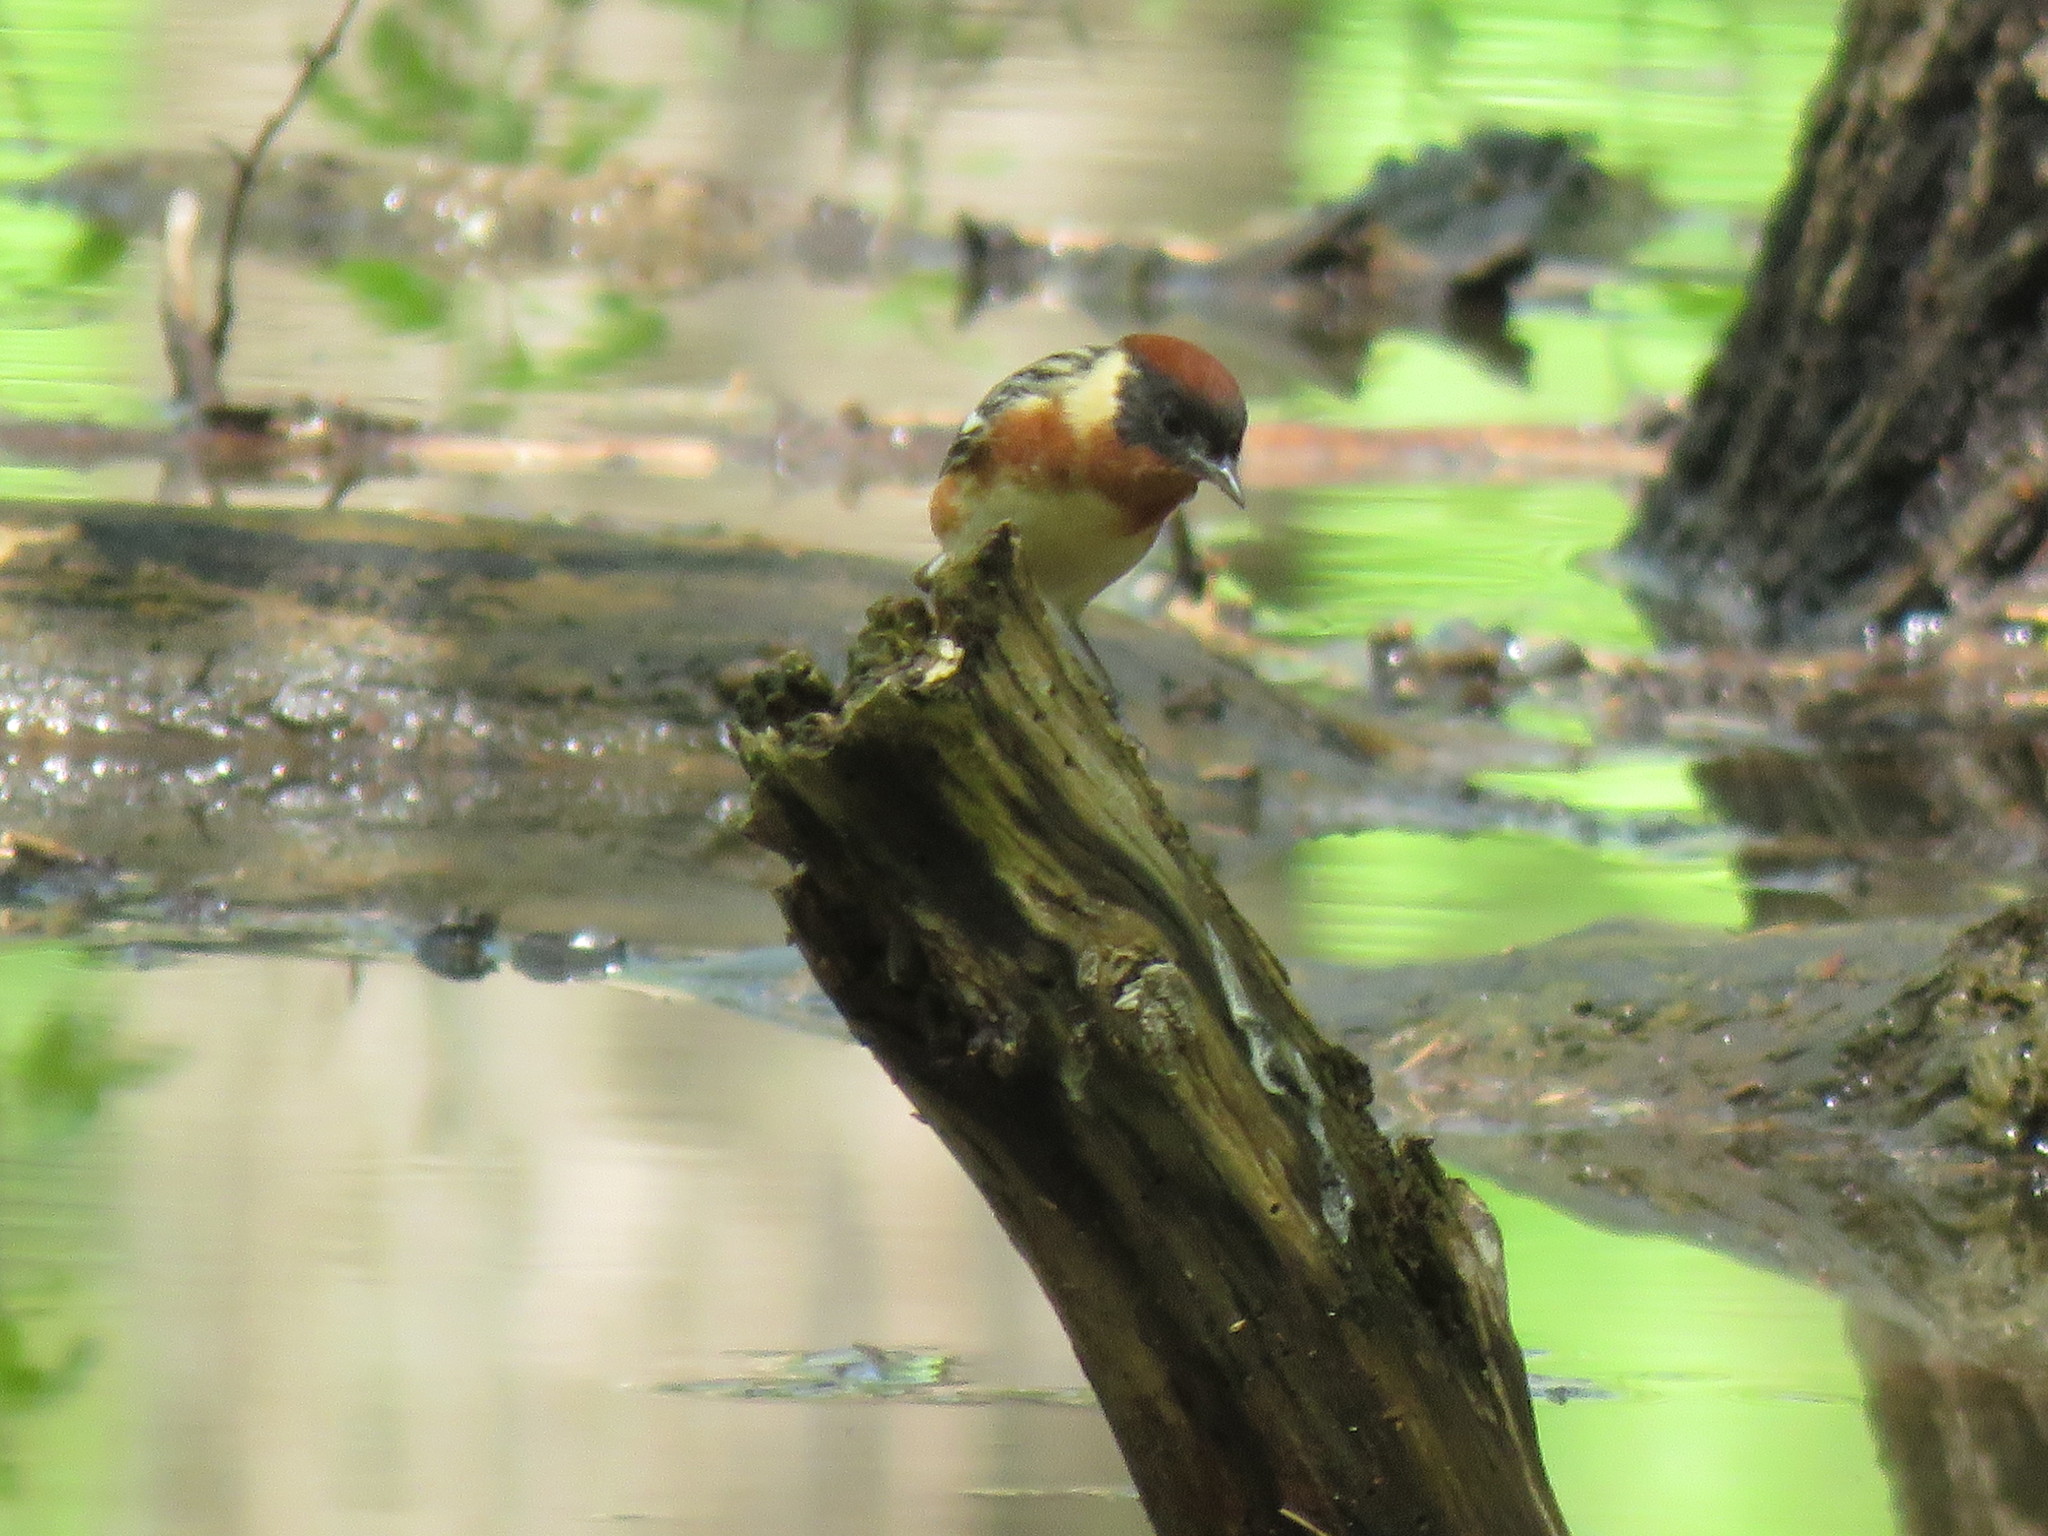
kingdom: Animalia
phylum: Chordata
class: Aves
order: Passeriformes
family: Parulidae
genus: Setophaga
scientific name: Setophaga castanea
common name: Bay-breasted warbler
